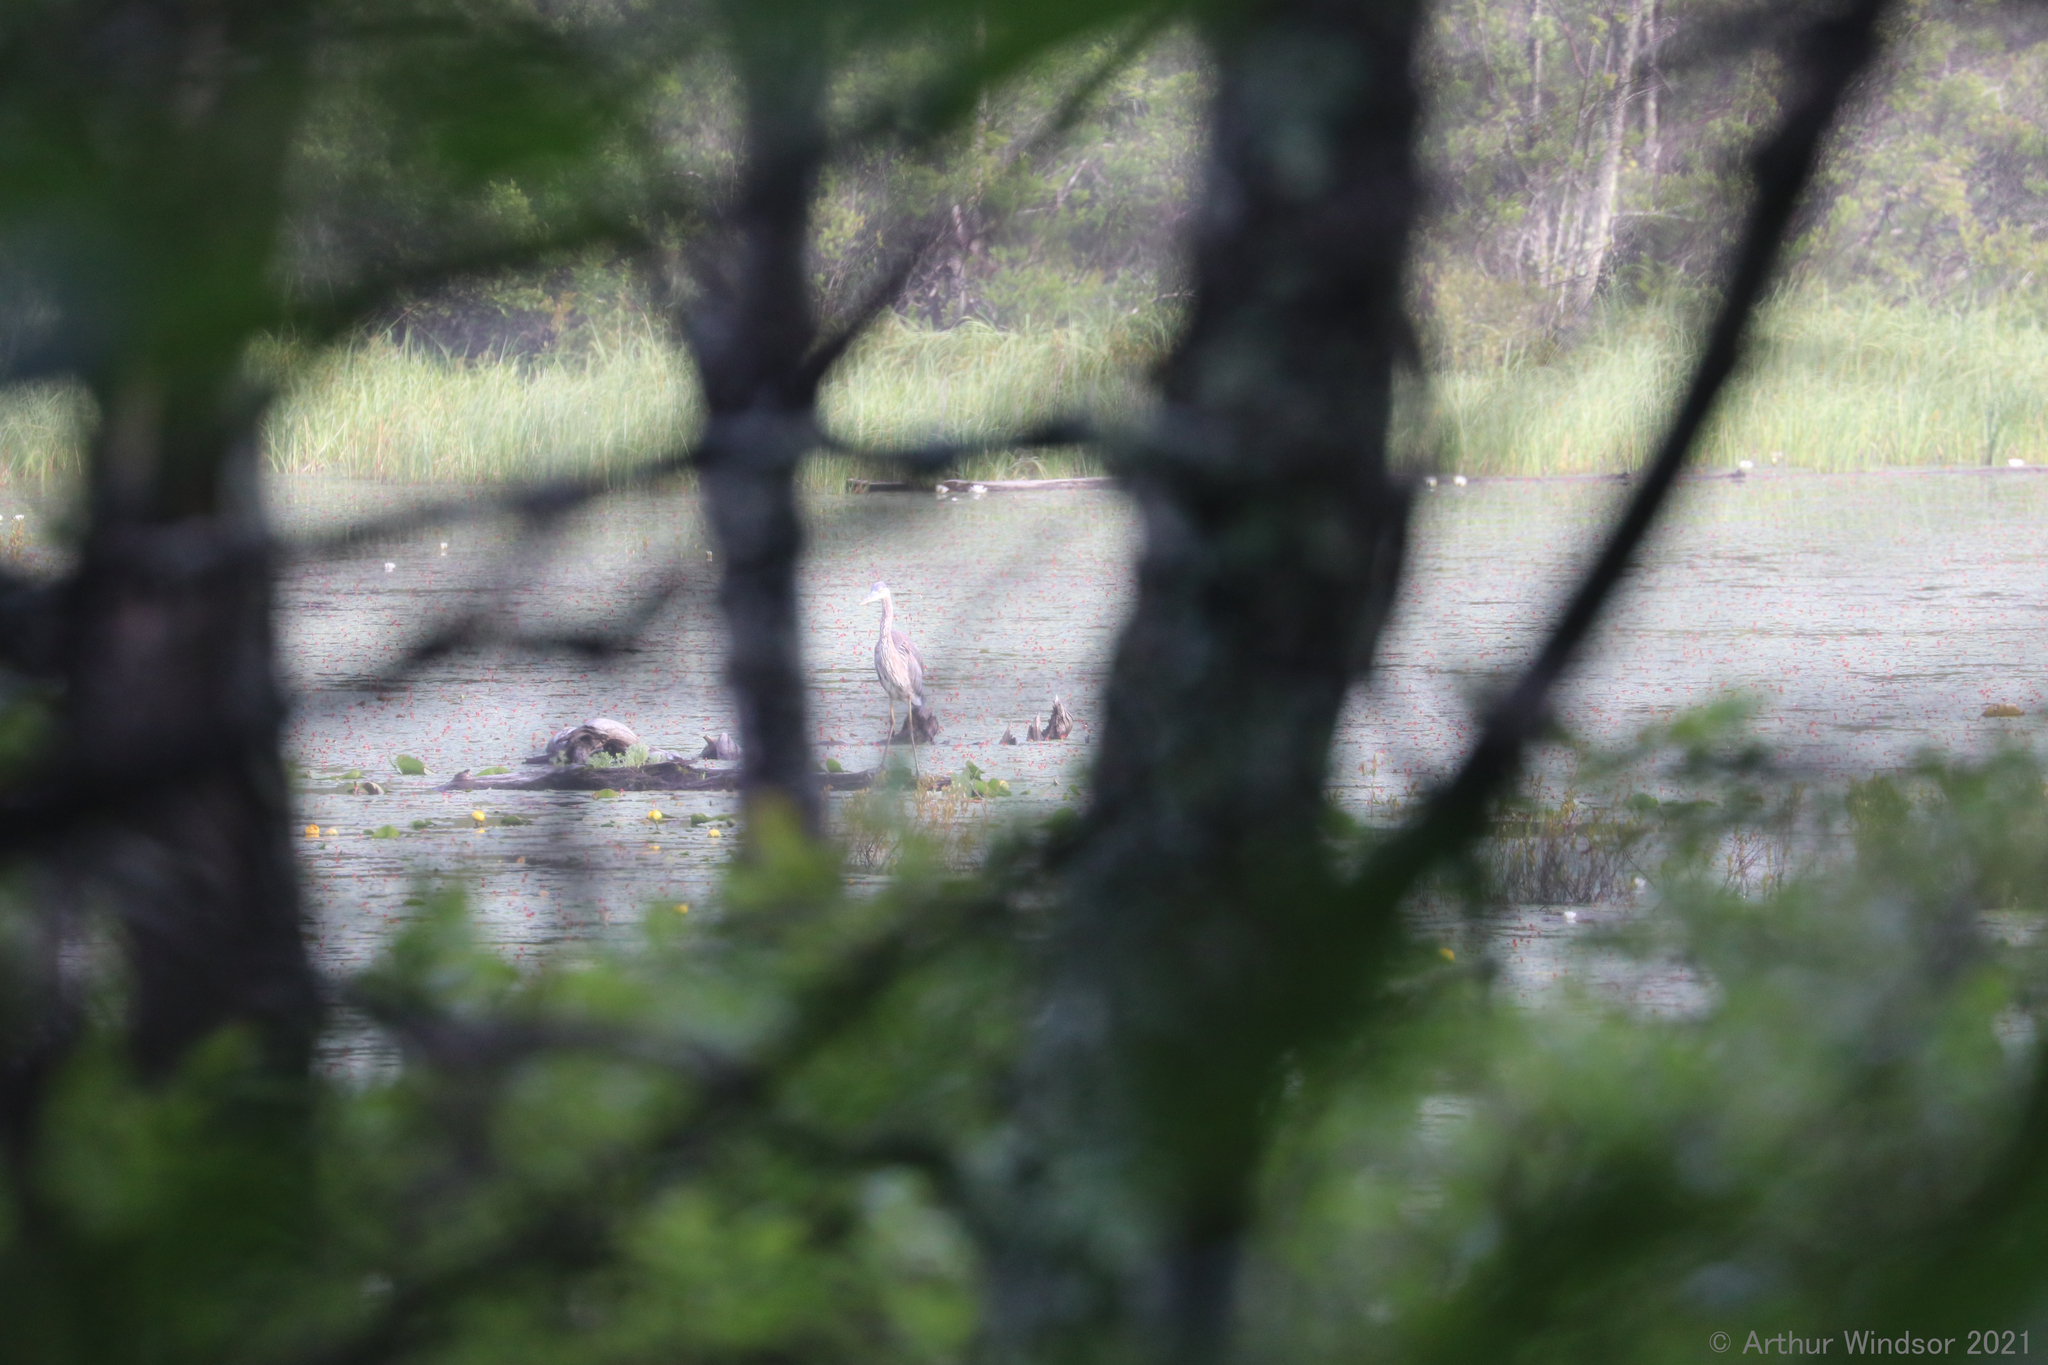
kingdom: Animalia
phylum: Chordata
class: Aves
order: Pelecaniformes
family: Ardeidae
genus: Ardea
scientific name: Ardea herodias
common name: Great blue heron
